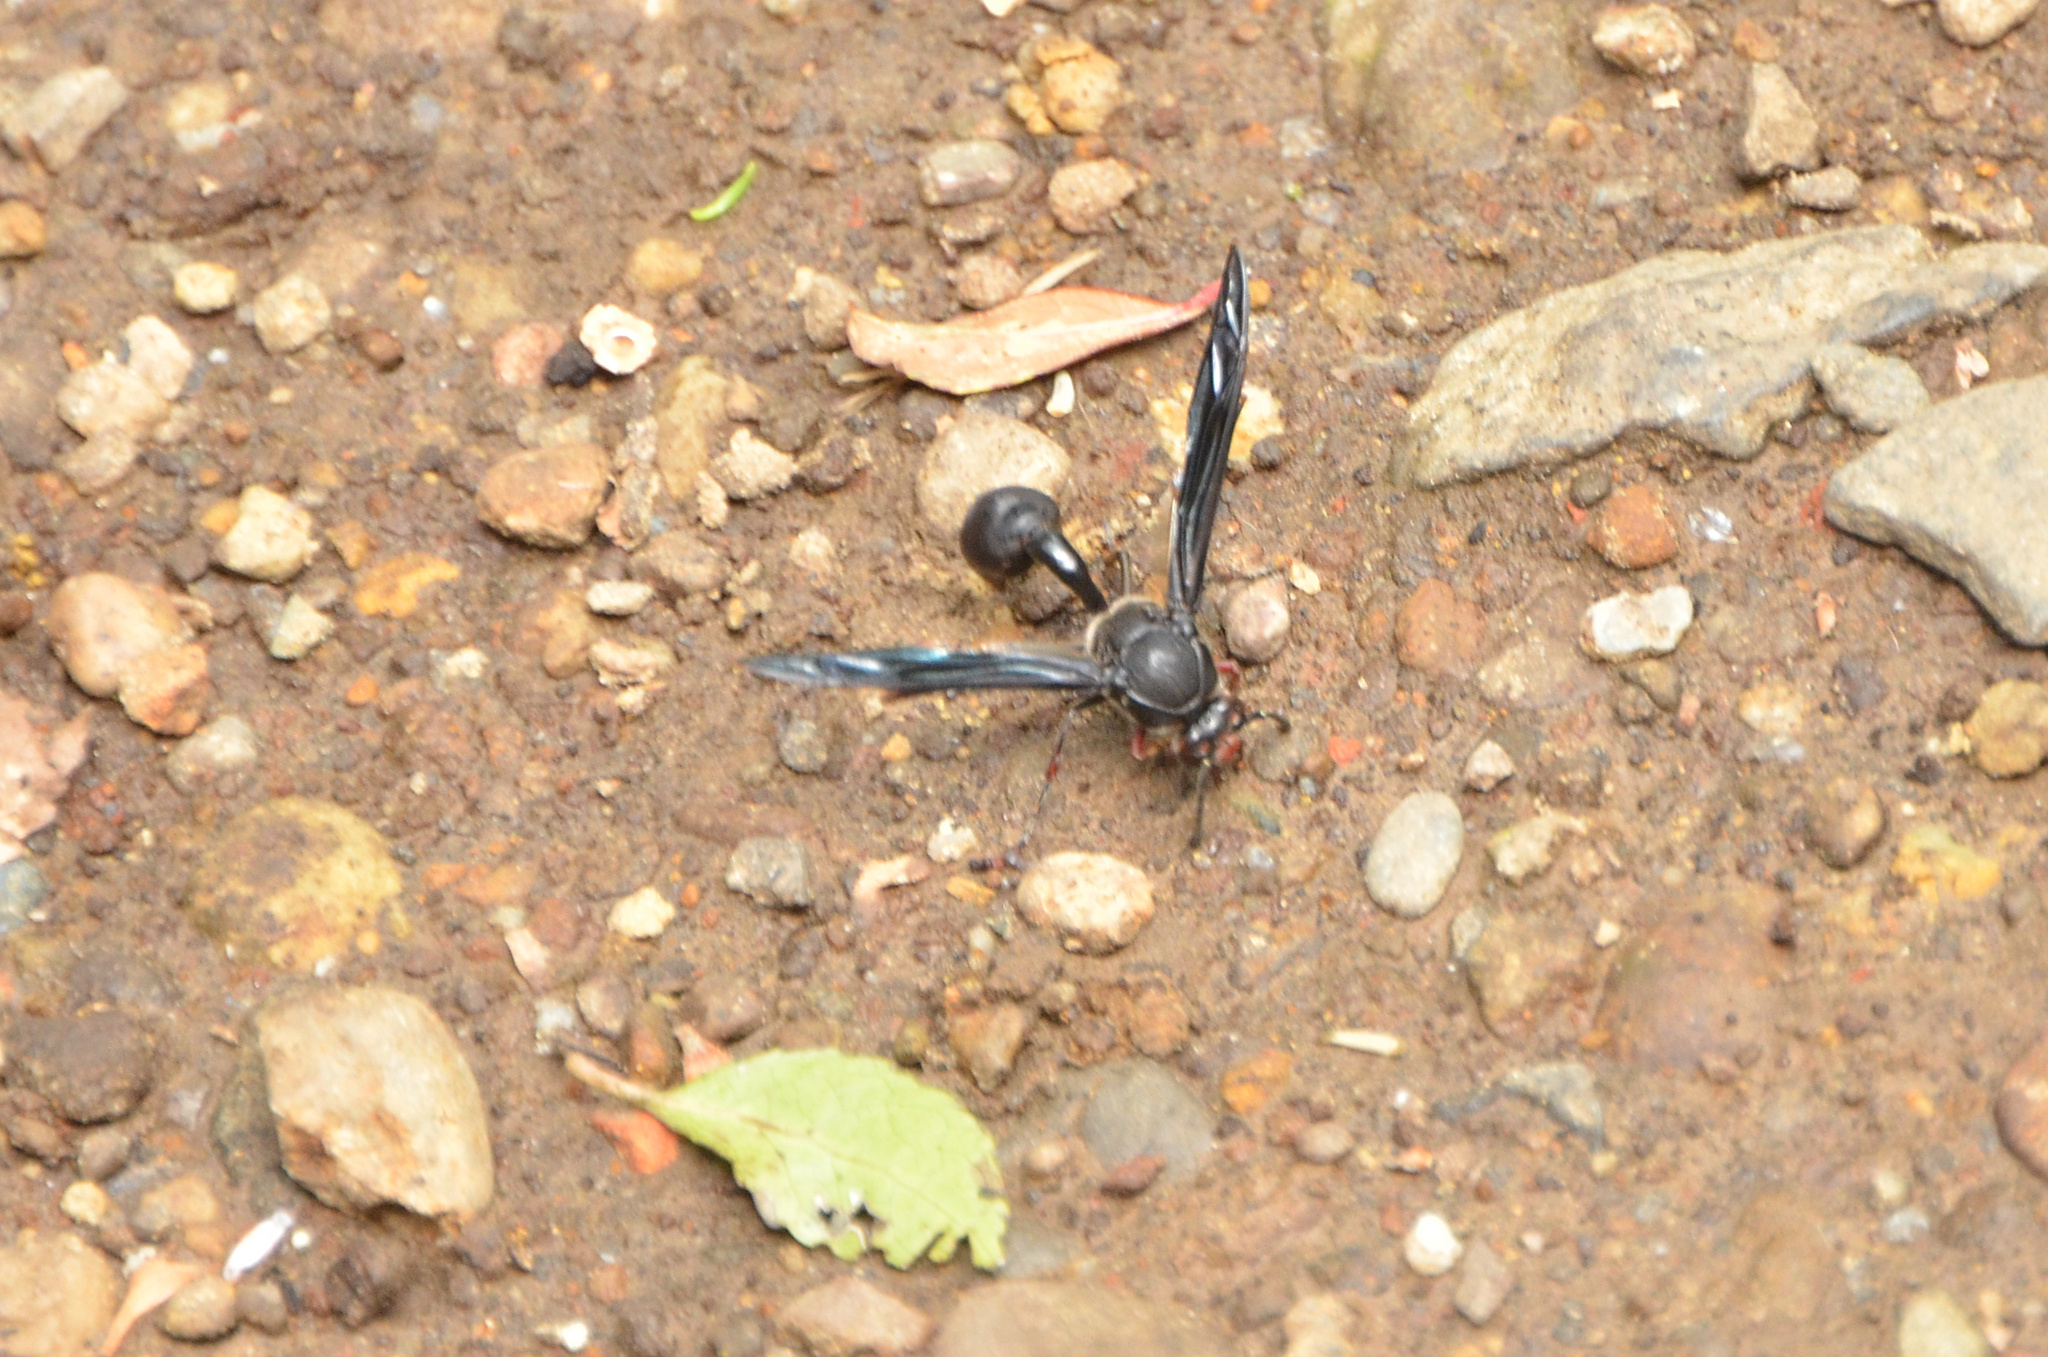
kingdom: Animalia
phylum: Arthropoda
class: Insecta
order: Hymenoptera
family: Eumenidae
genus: Delta
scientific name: Delta bonellii
